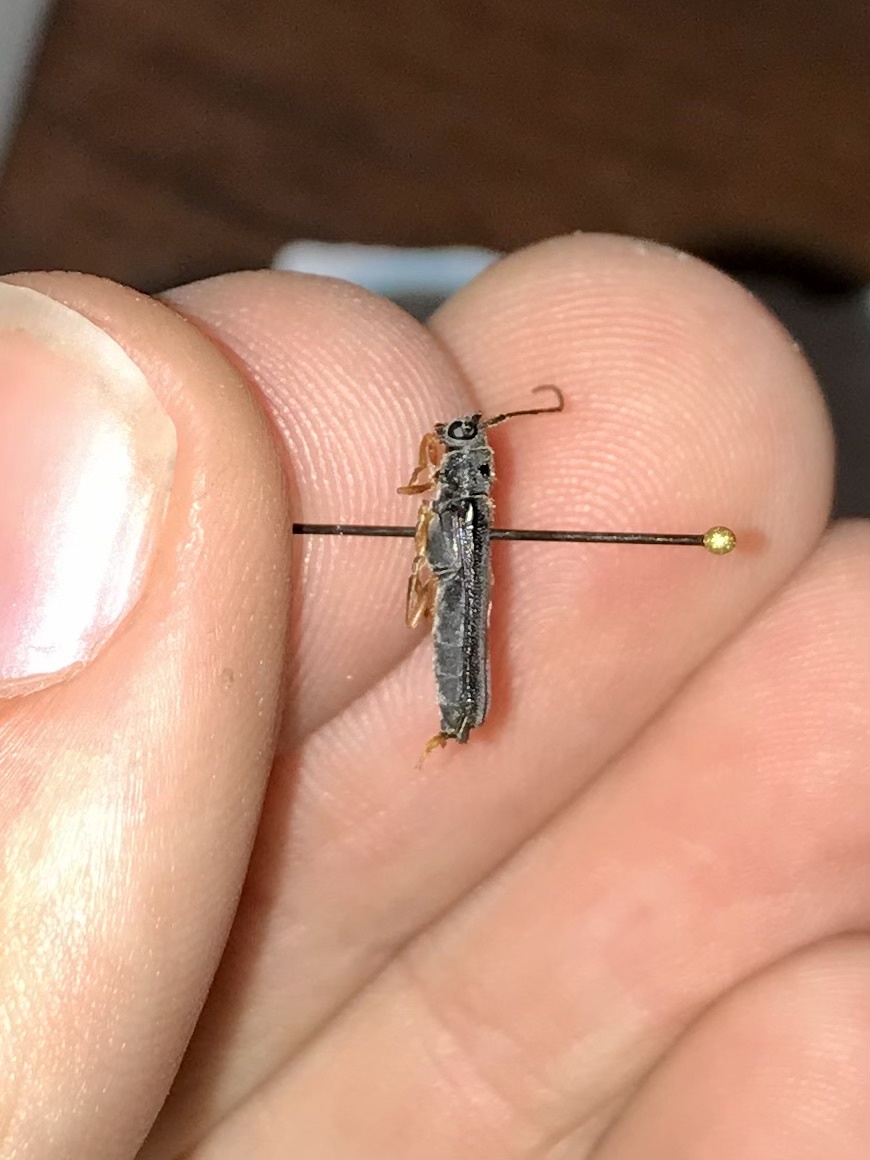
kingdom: Animalia
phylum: Arthropoda
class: Insecta
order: Coleoptera
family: Cerambycidae
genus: Oberea
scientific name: Oberea flavipes
